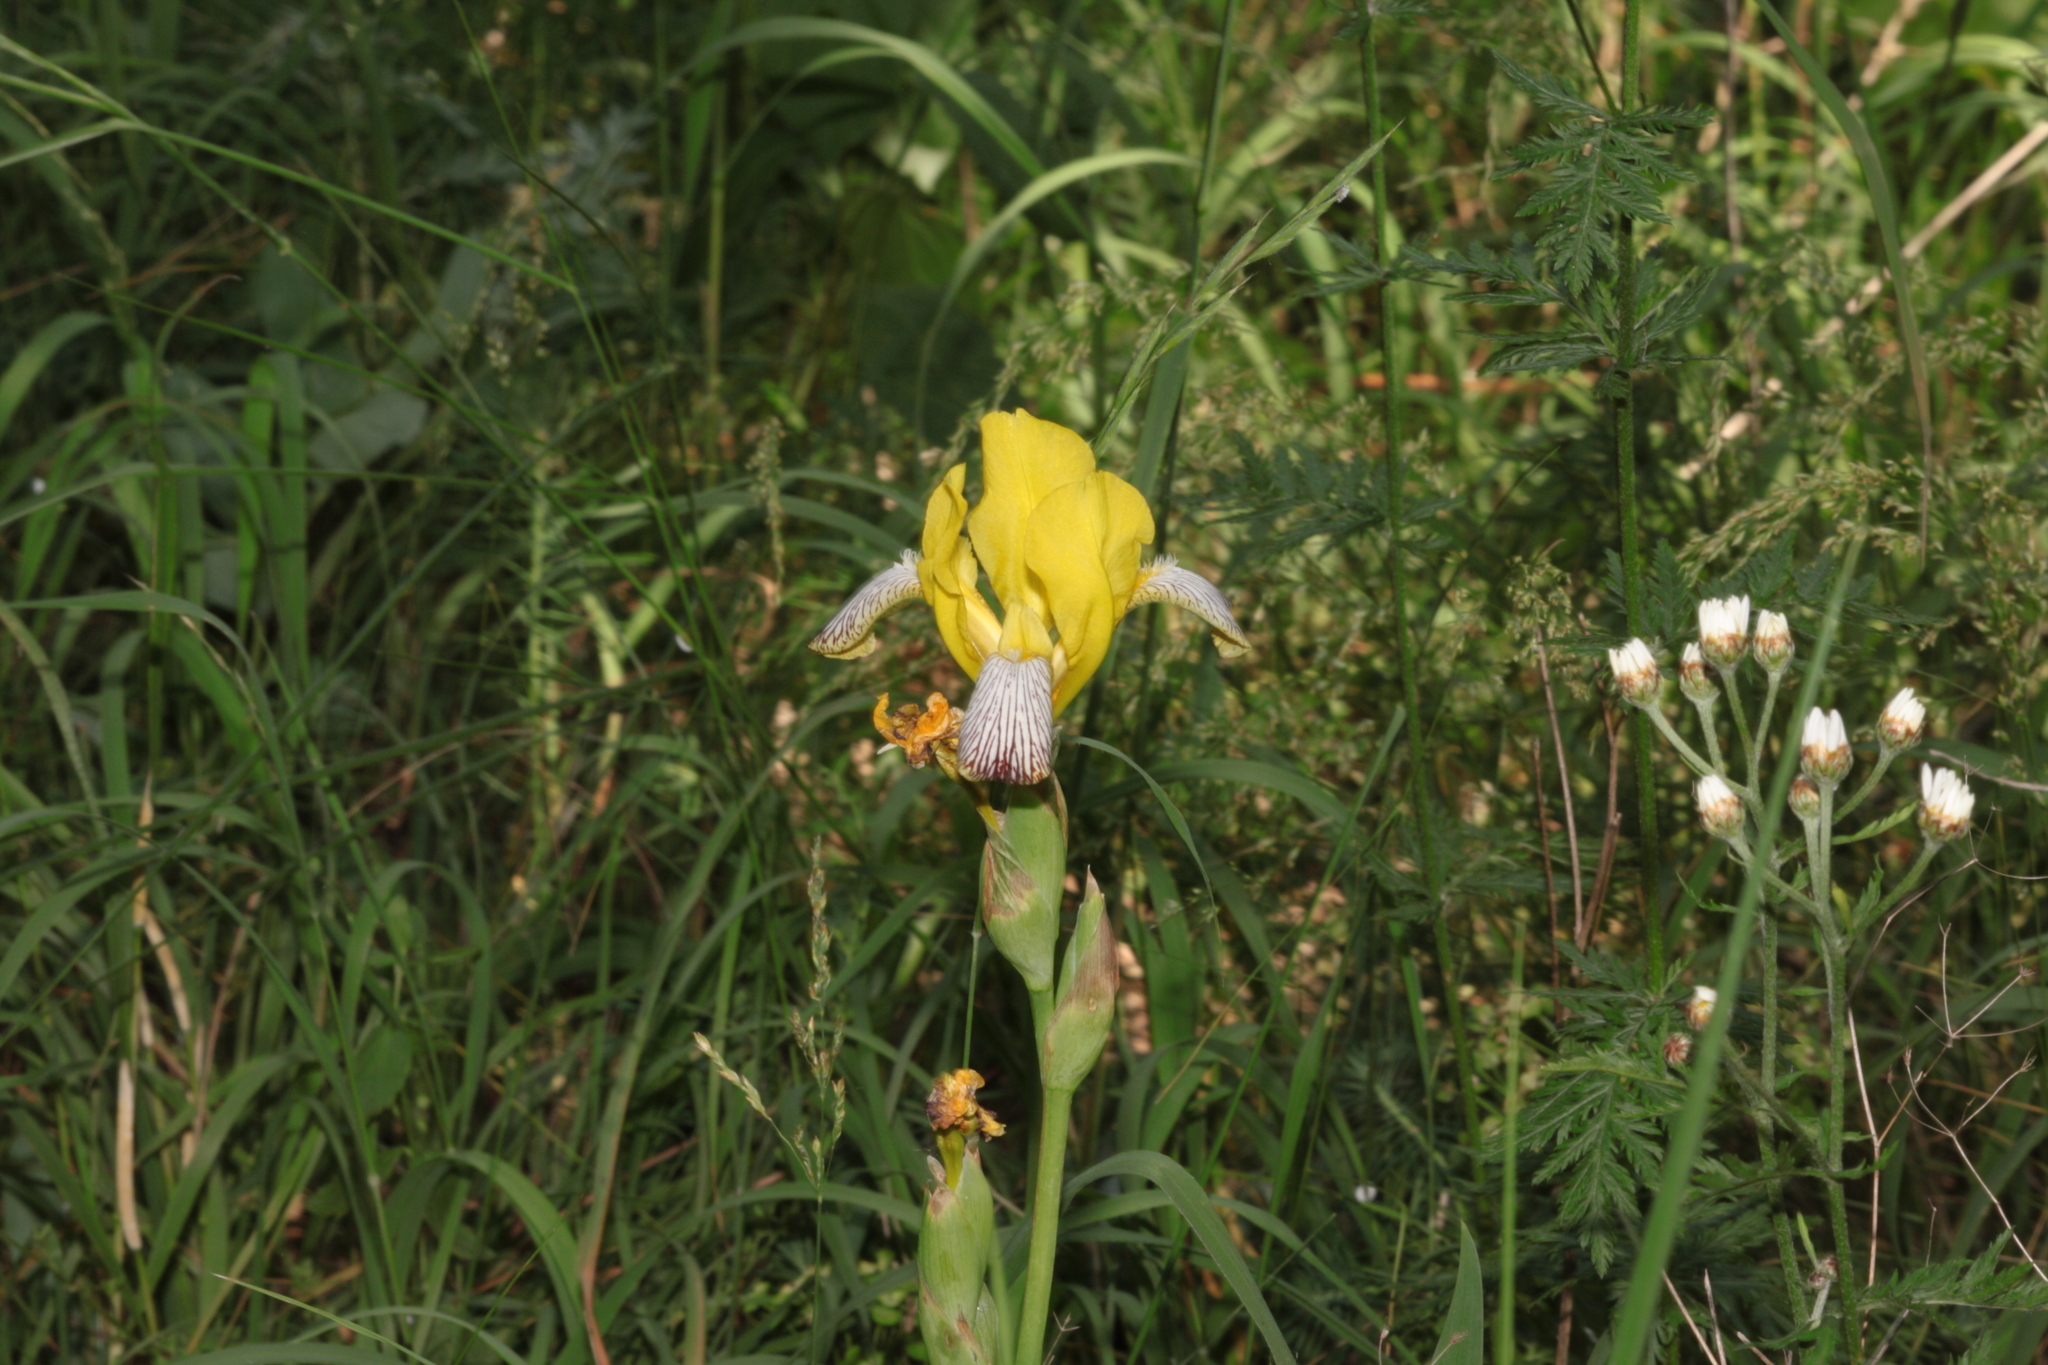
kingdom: Plantae
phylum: Tracheophyta
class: Liliopsida
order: Asparagales
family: Iridaceae
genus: Iris
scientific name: Iris variegata
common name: Hungarian iris
